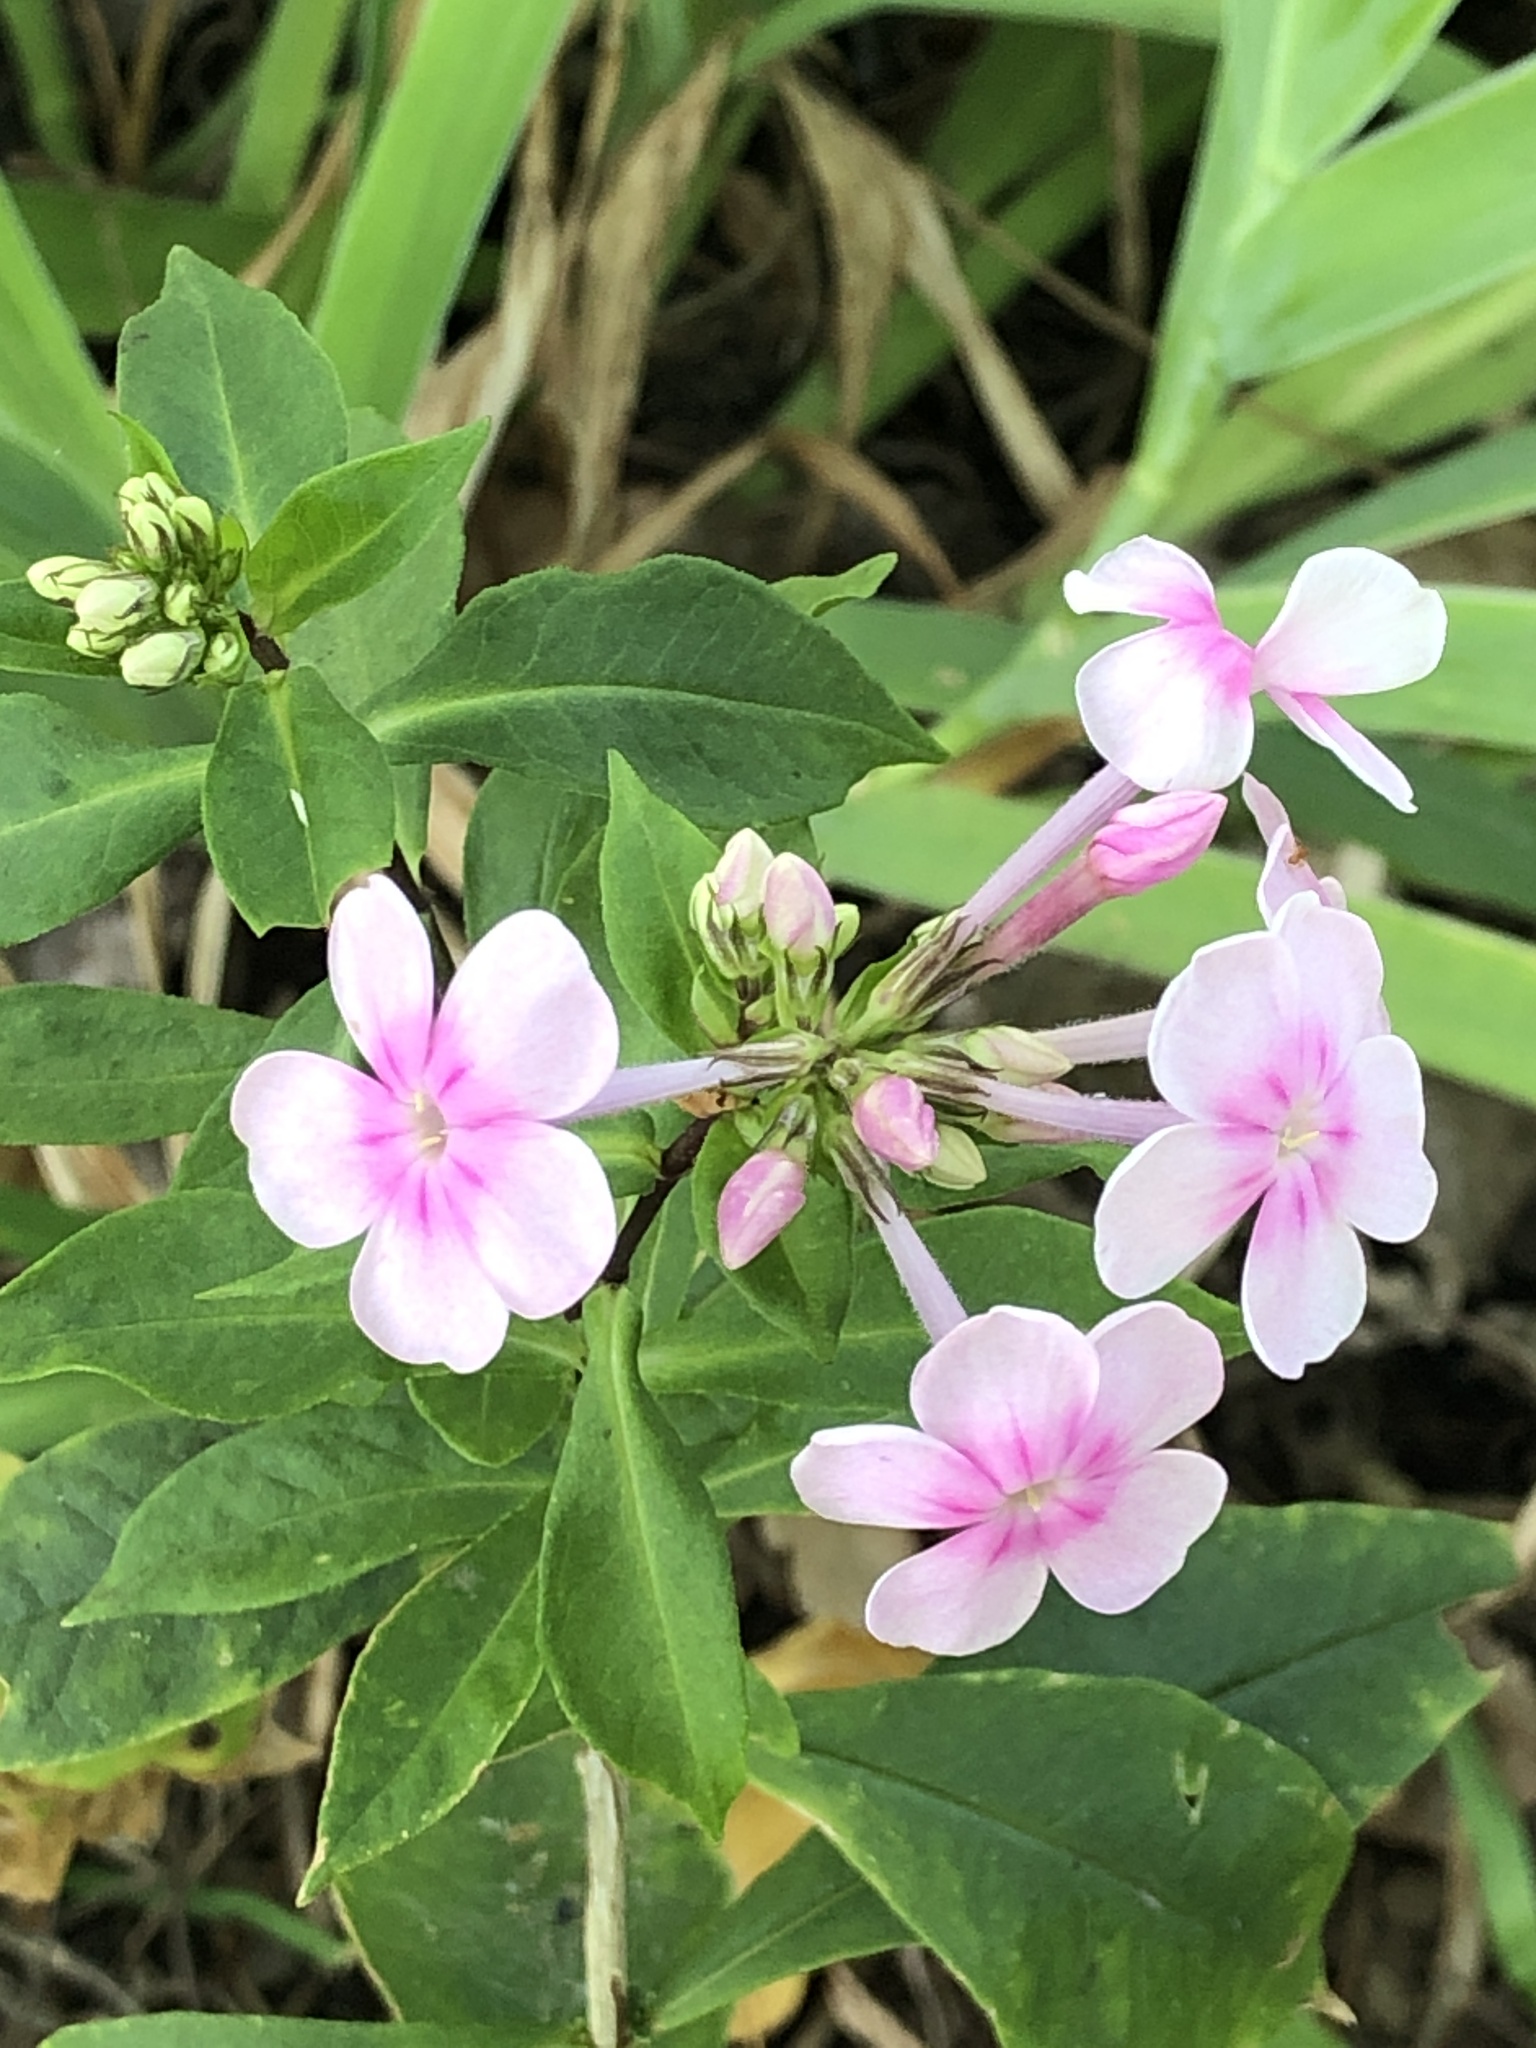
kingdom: Plantae
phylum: Tracheophyta
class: Magnoliopsida
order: Ericales
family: Polemoniaceae
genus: Phlox
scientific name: Phlox paniculata
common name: Fall phlox
